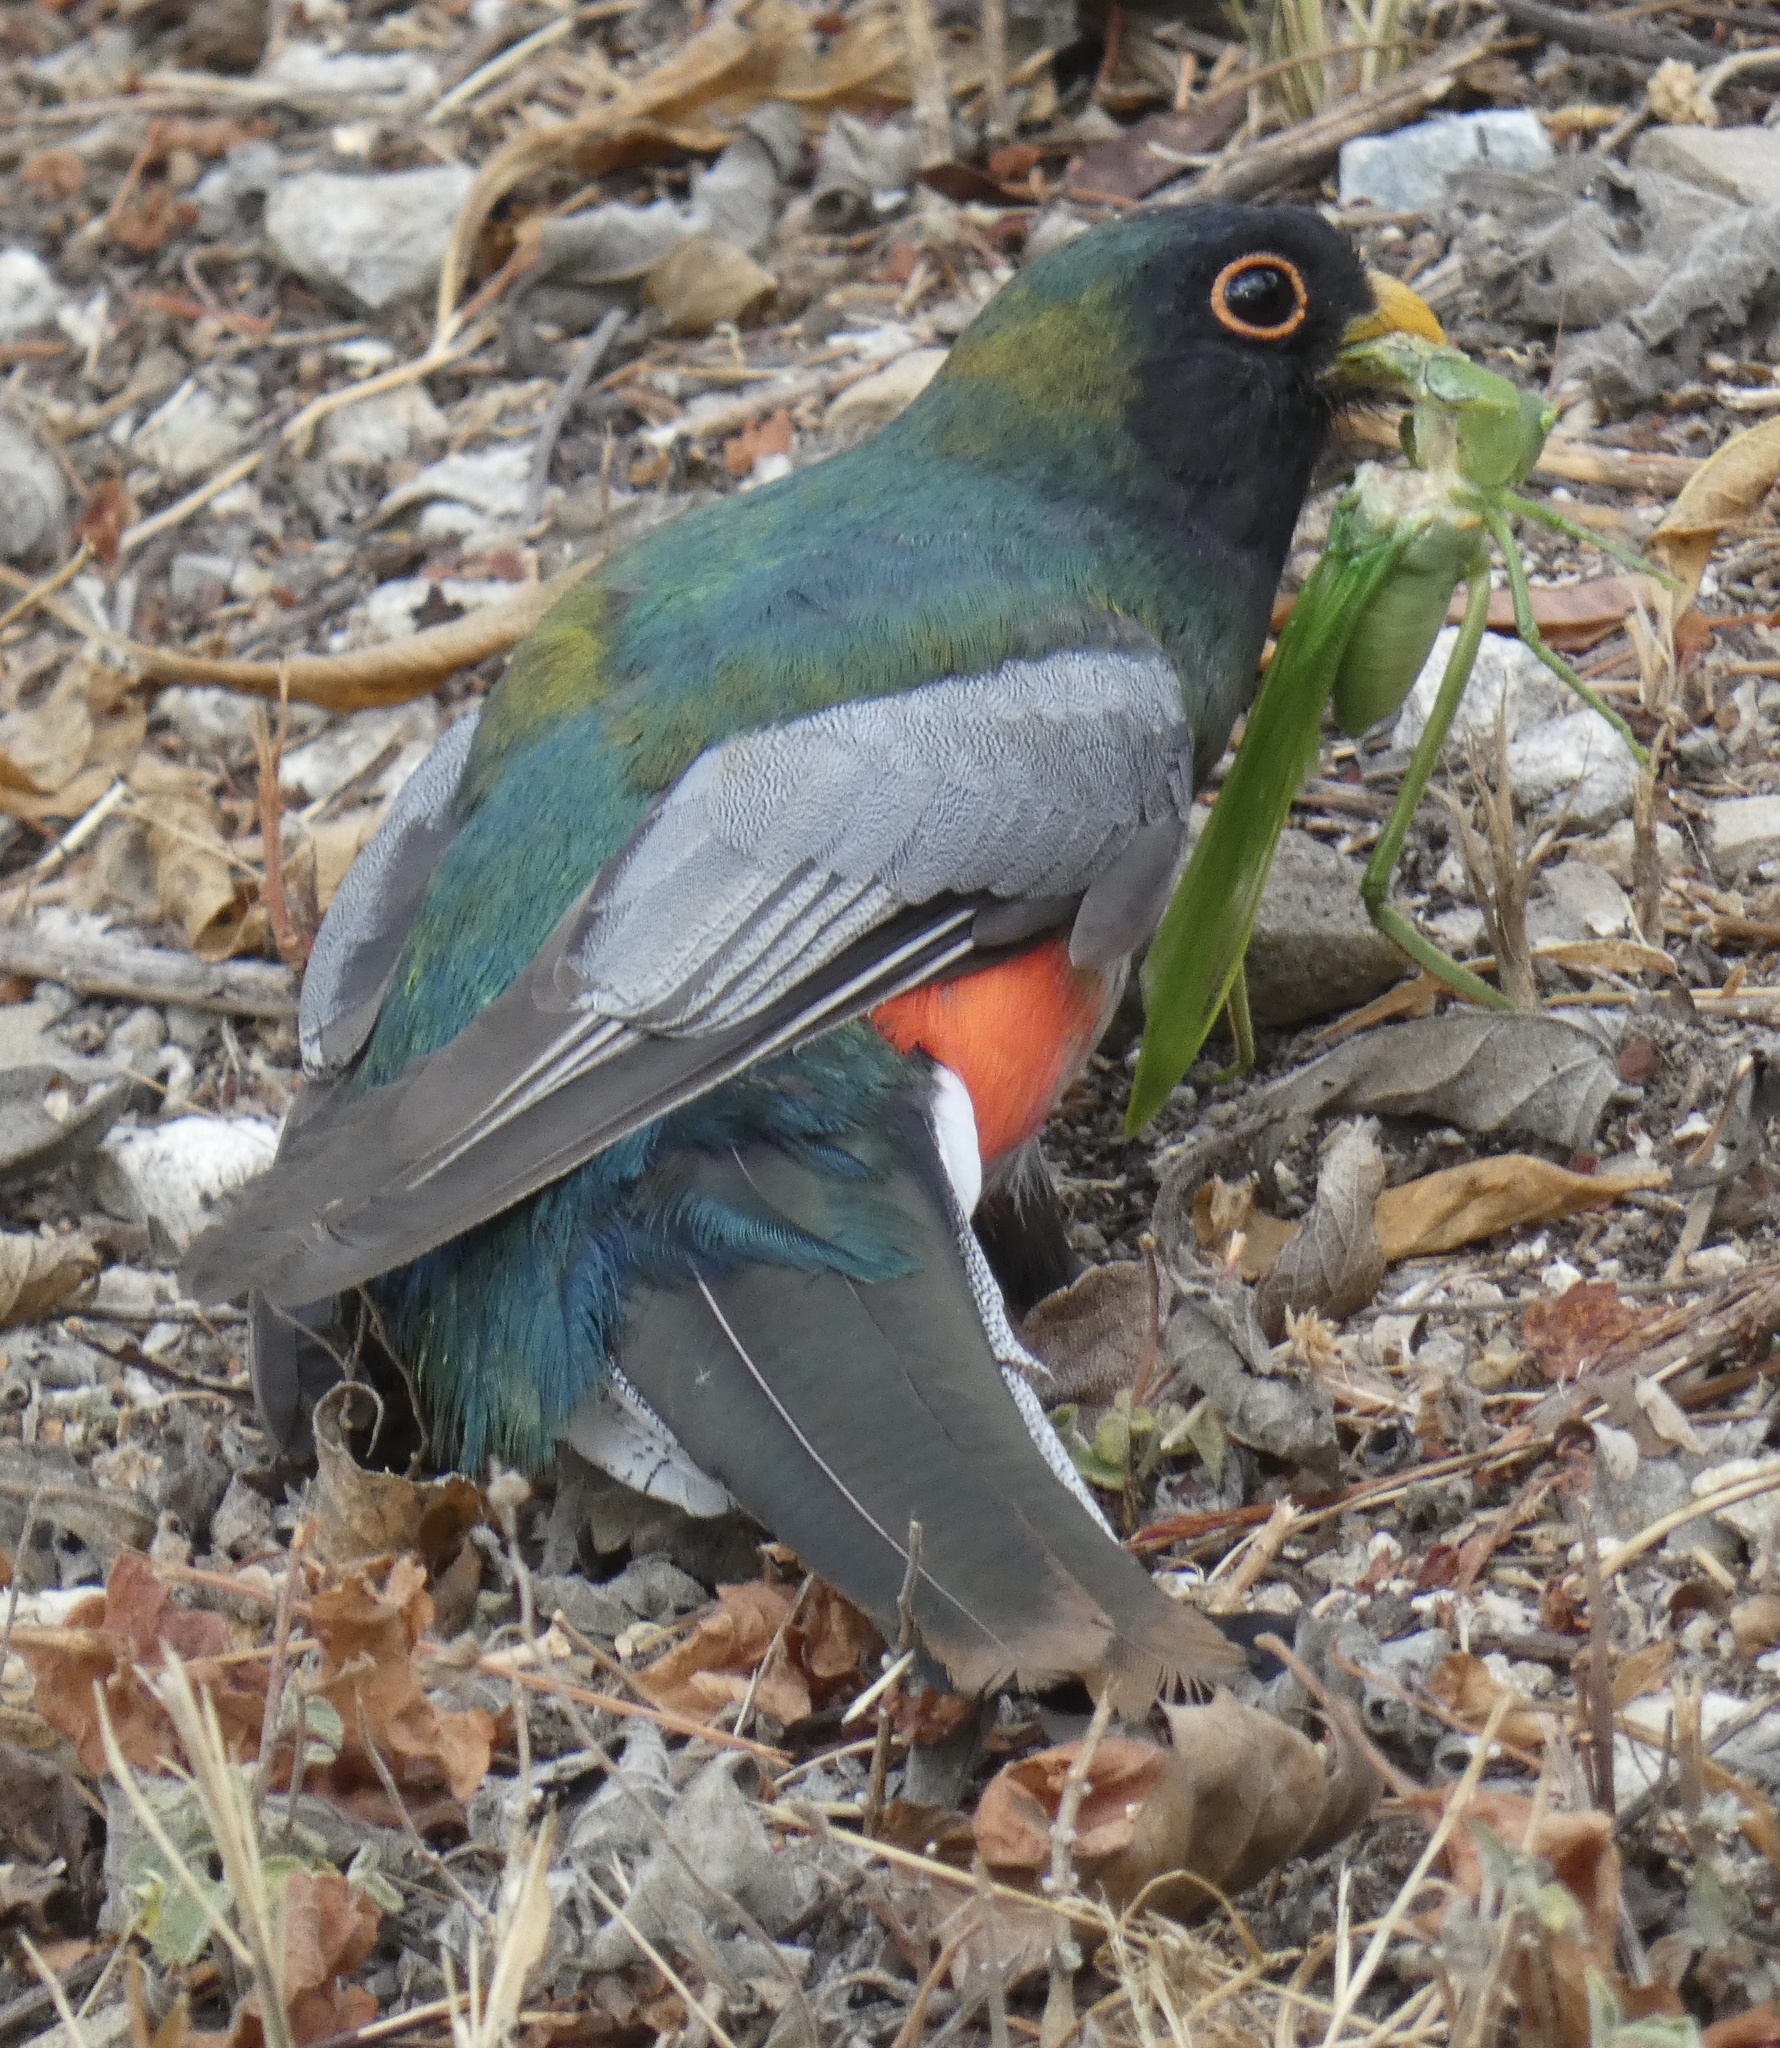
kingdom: Animalia
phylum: Chordata
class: Aves
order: Trogoniformes
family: Trogonidae
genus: Trogon
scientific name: Trogon elegans
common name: Elegant trogon
